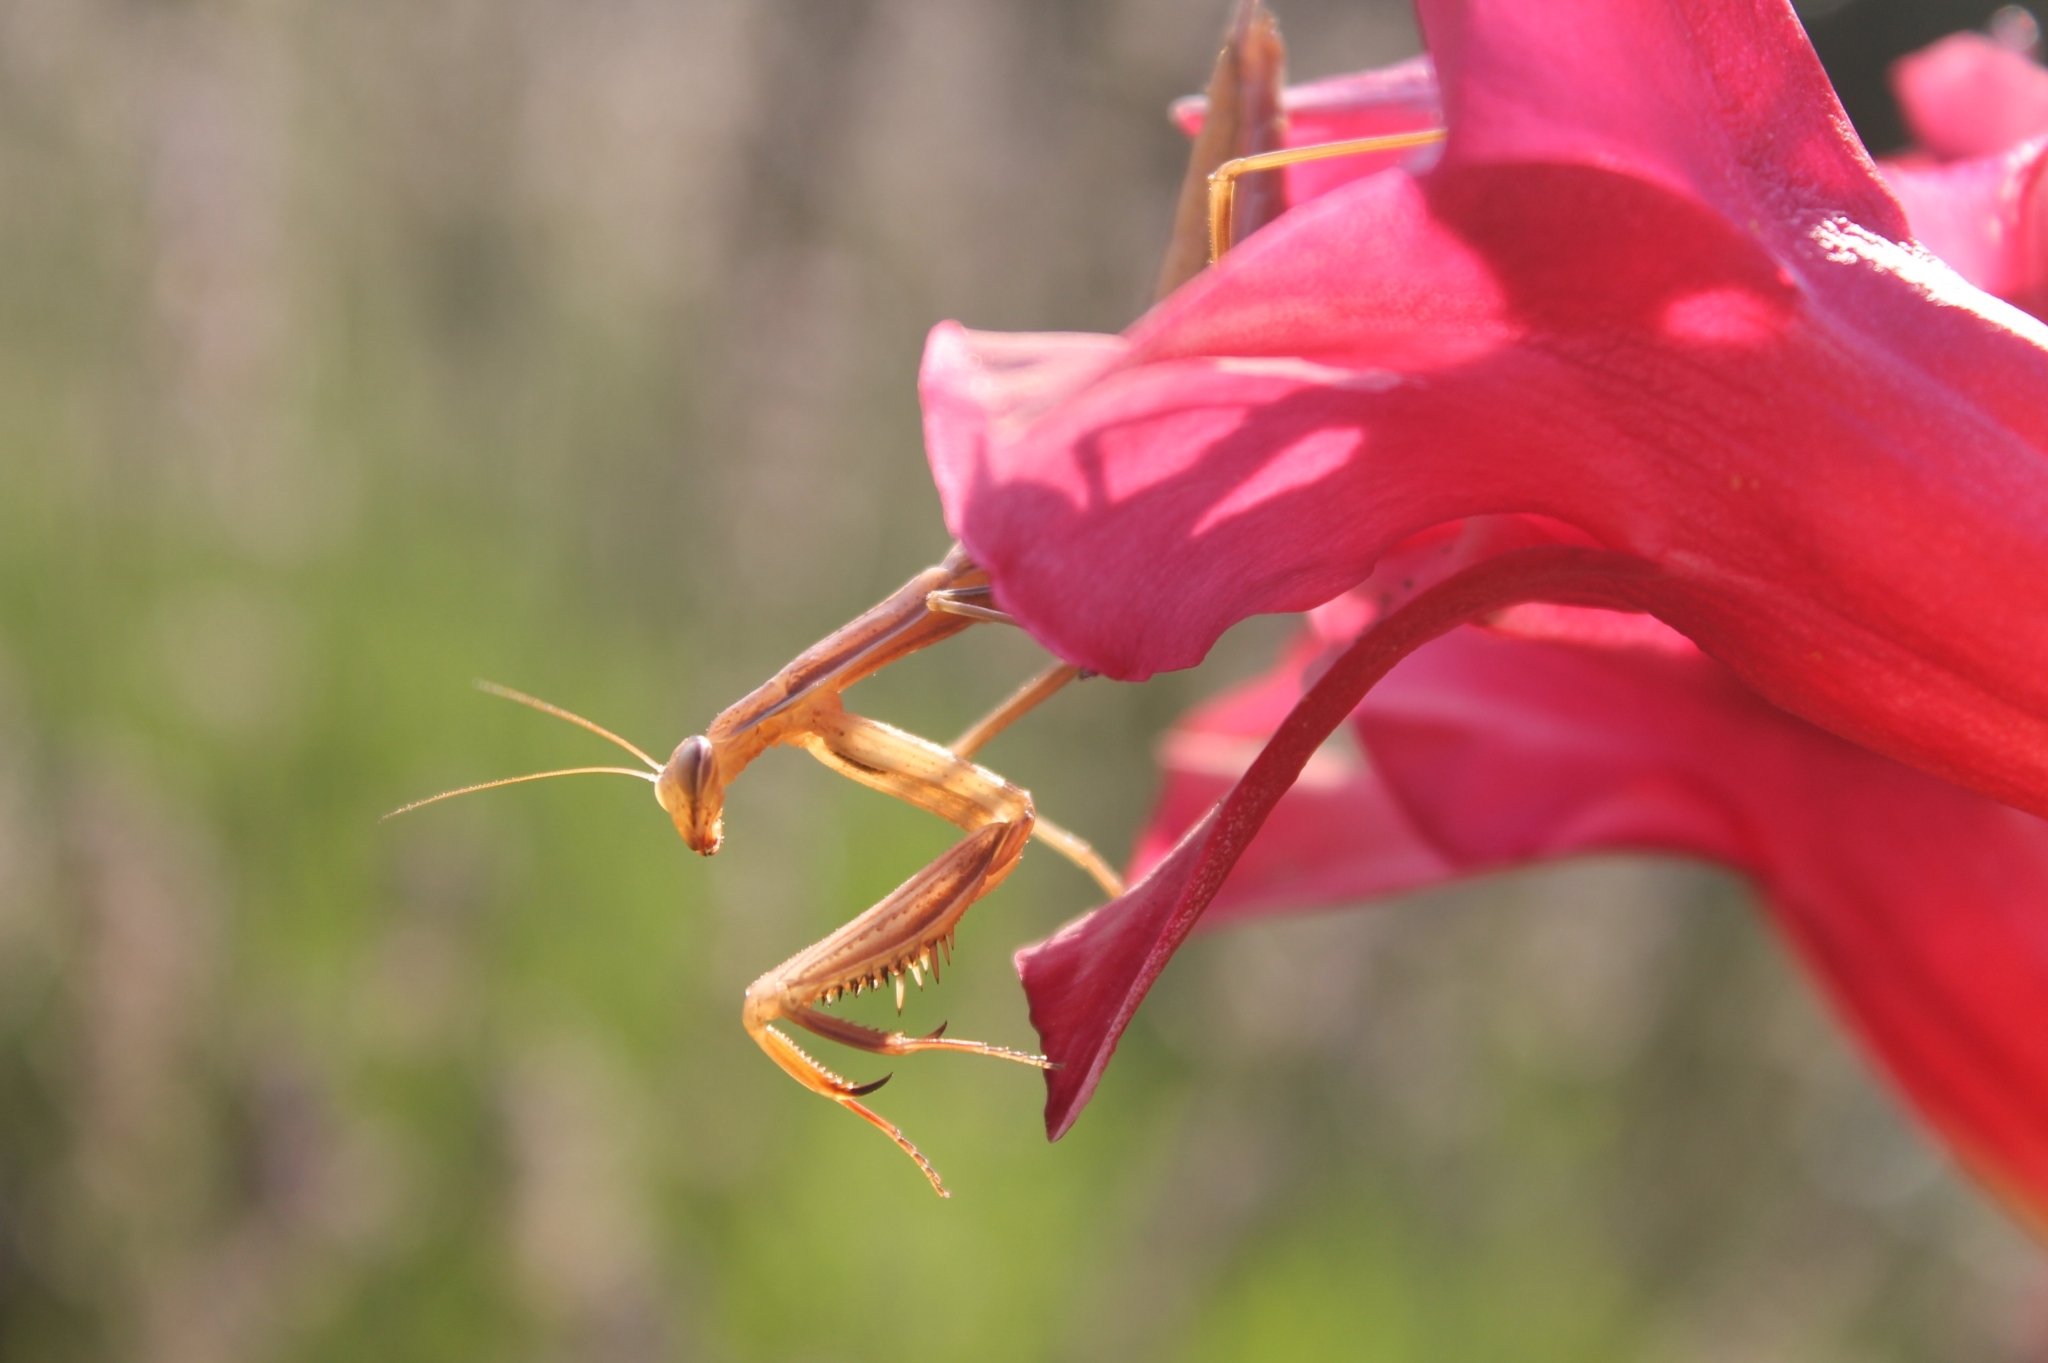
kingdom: Animalia
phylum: Arthropoda
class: Insecta
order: Mantodea
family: Mantidae
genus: Mantis
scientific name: Mantis religiosa
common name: Praying mantis
